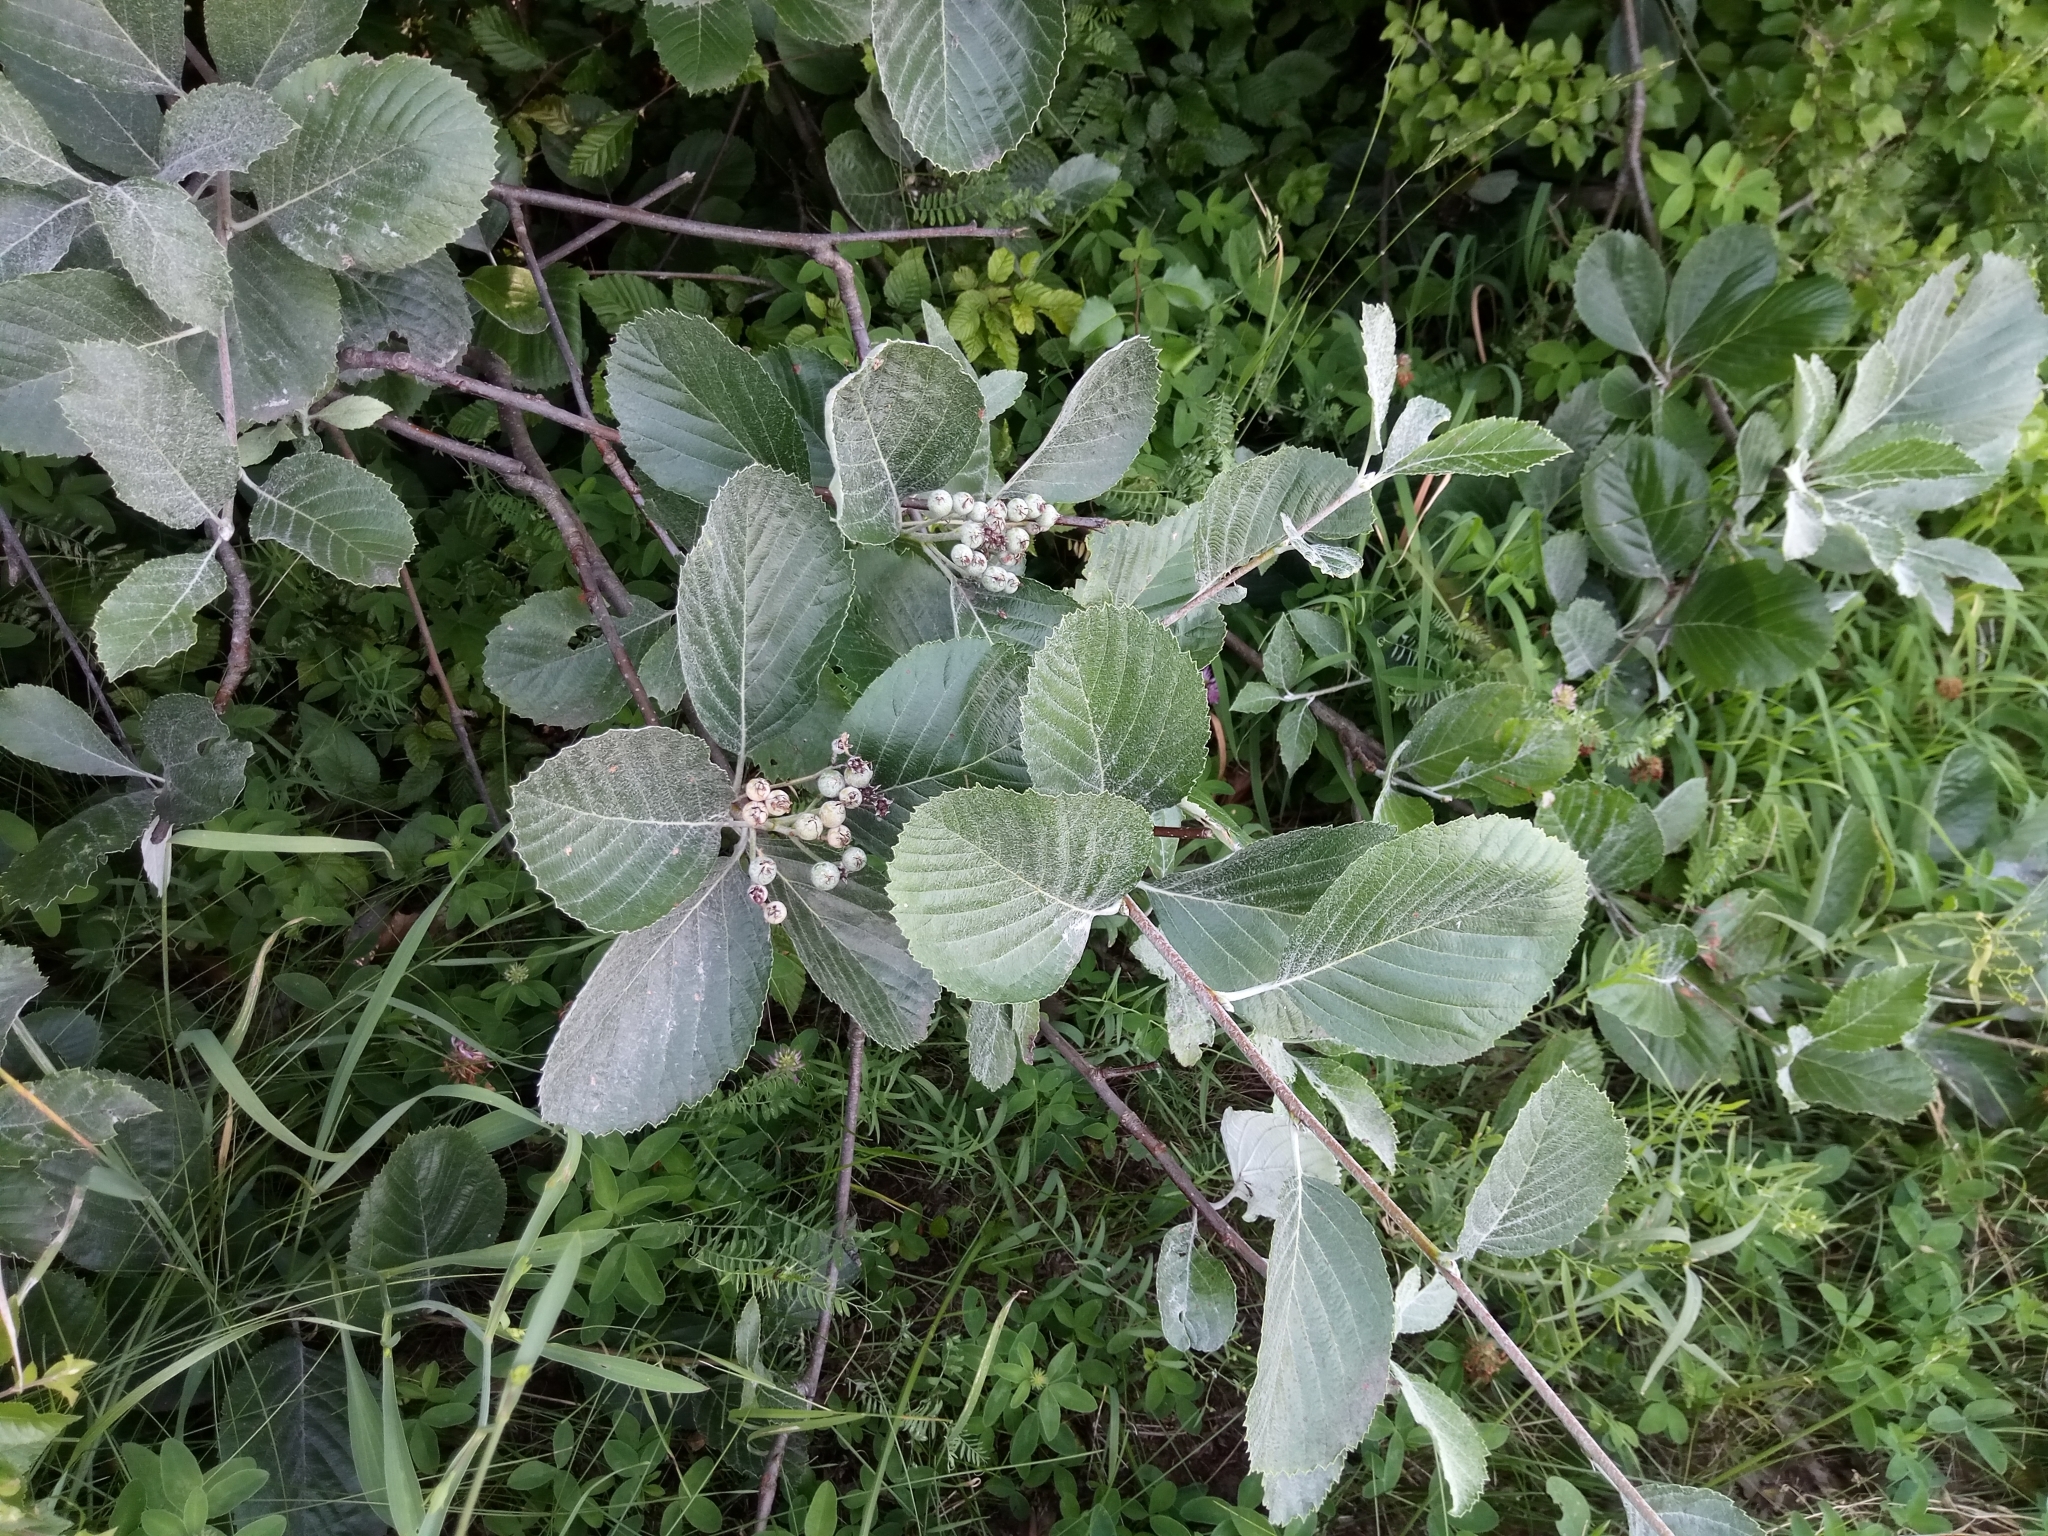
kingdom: Plantae
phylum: Tracheophyta
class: Magnoliopsida
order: Rosales
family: Rosaceae
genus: Aria
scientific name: Aria collina
